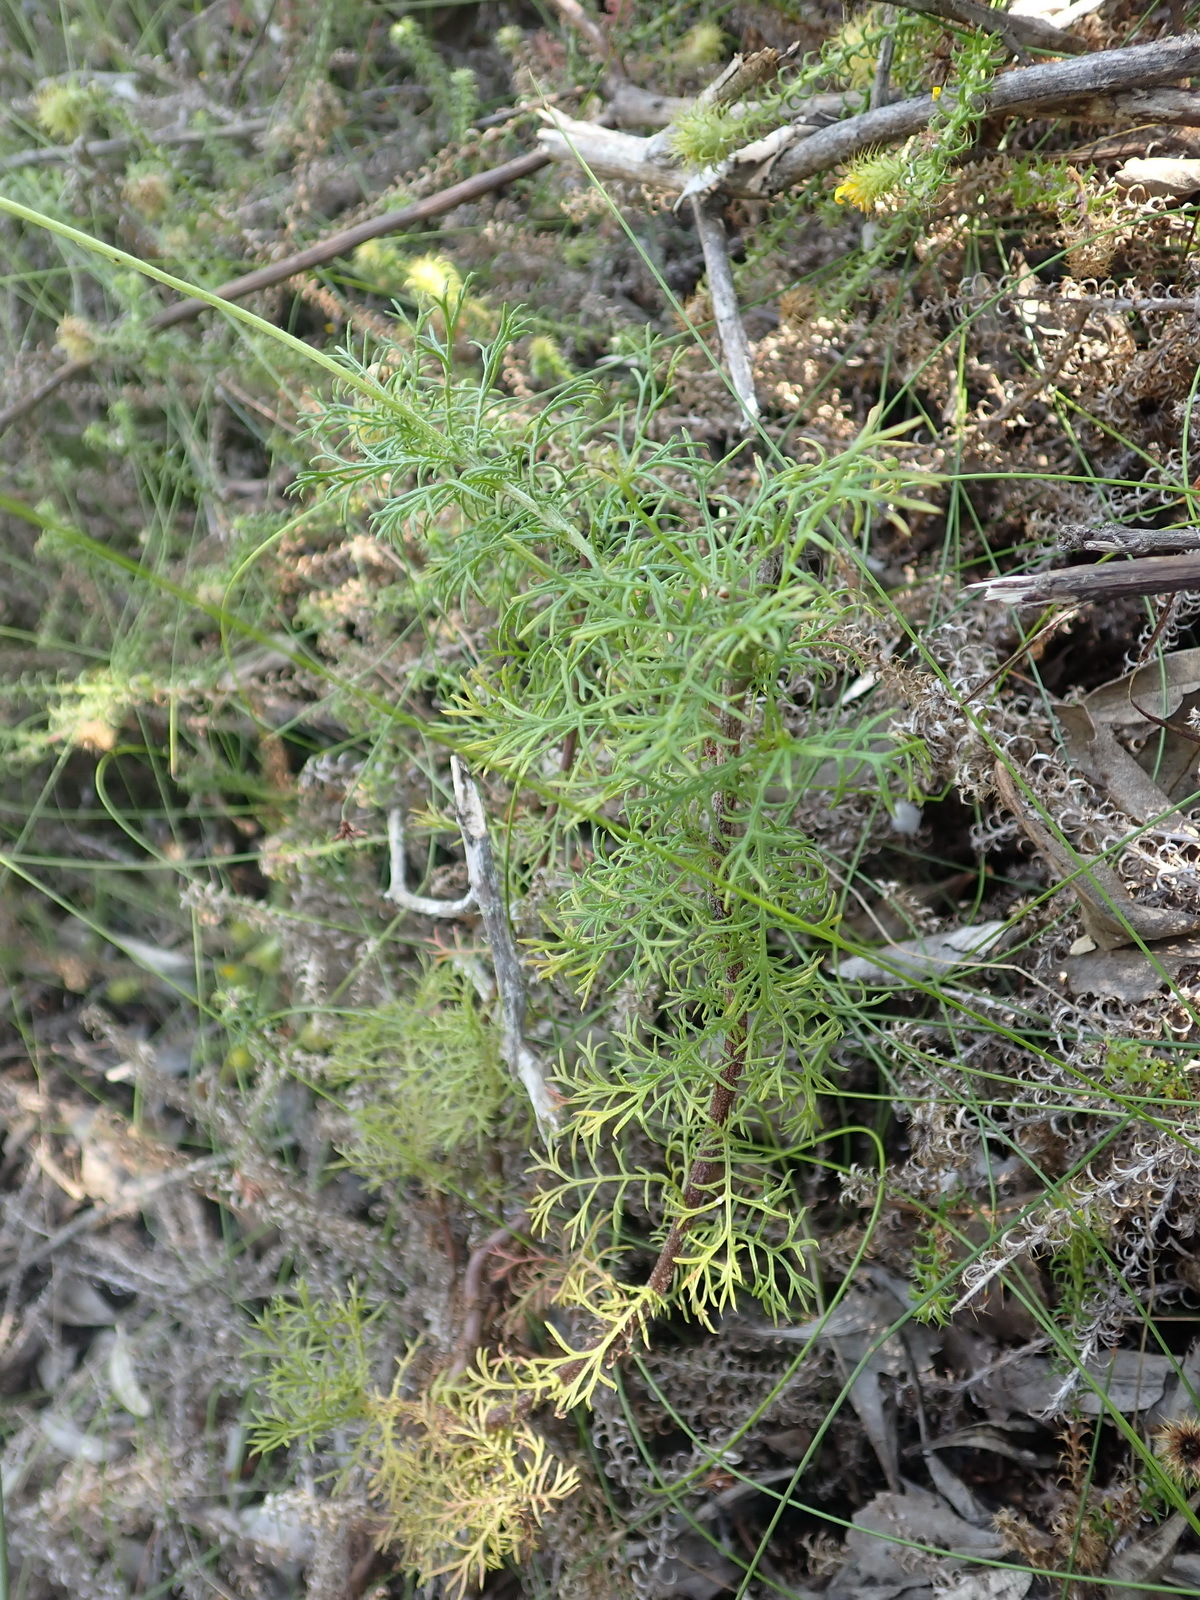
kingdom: Plantae
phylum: Tracheophyta
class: Magnoliopsida
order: Asterales
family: Asteraceae
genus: Ursinia
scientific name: Ursinia scariosa
